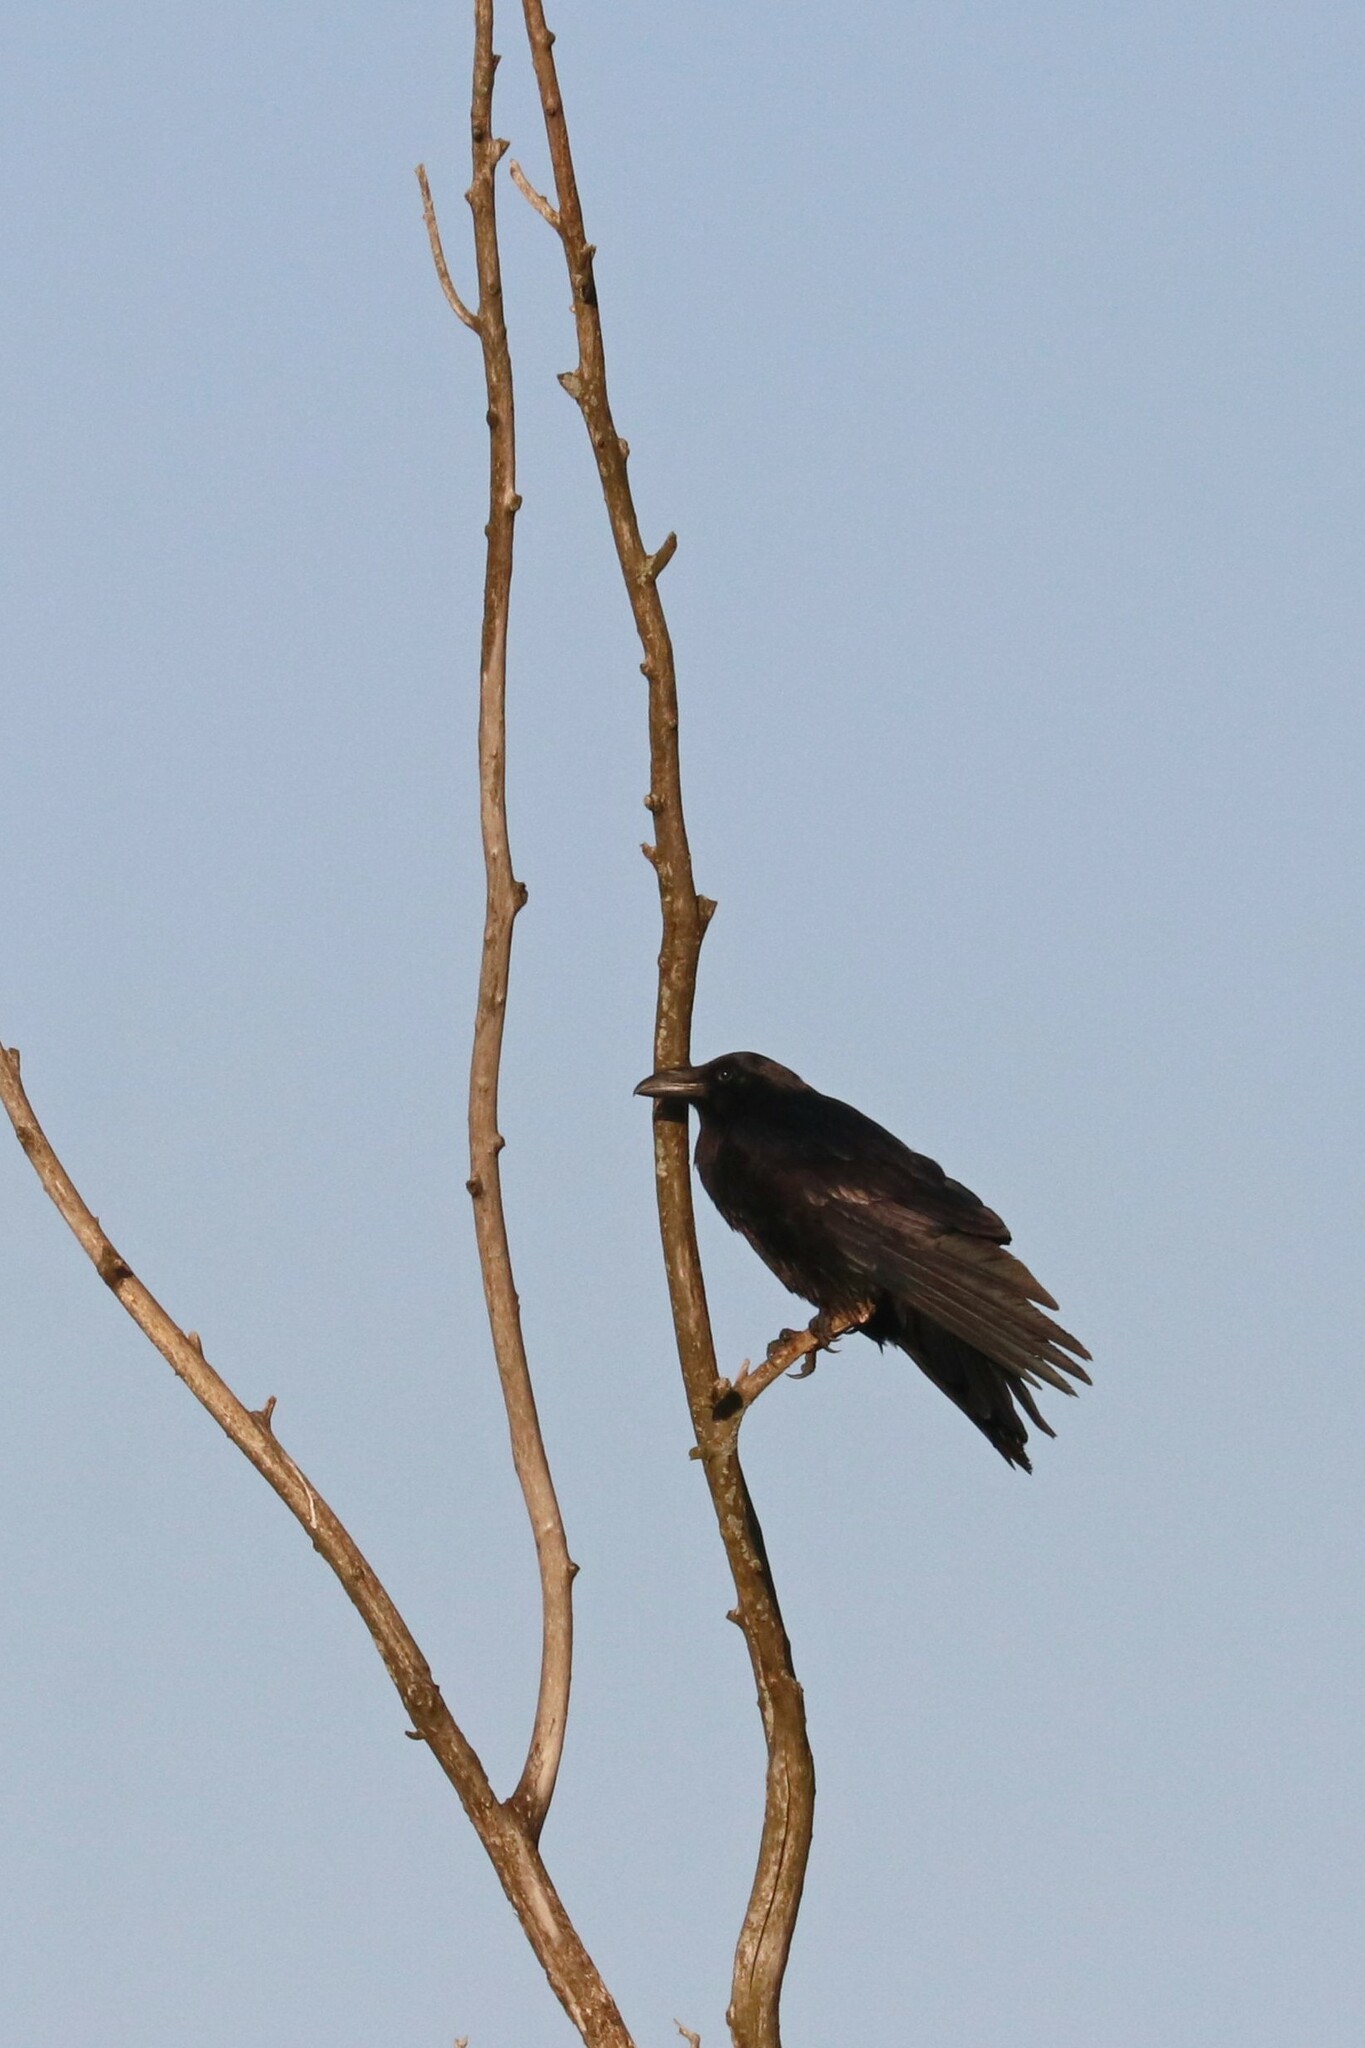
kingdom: Animalia
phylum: Chordata
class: Aves
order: Passeriformes
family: Corvidae
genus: Corvus
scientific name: Corvus corax
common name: Common raven
